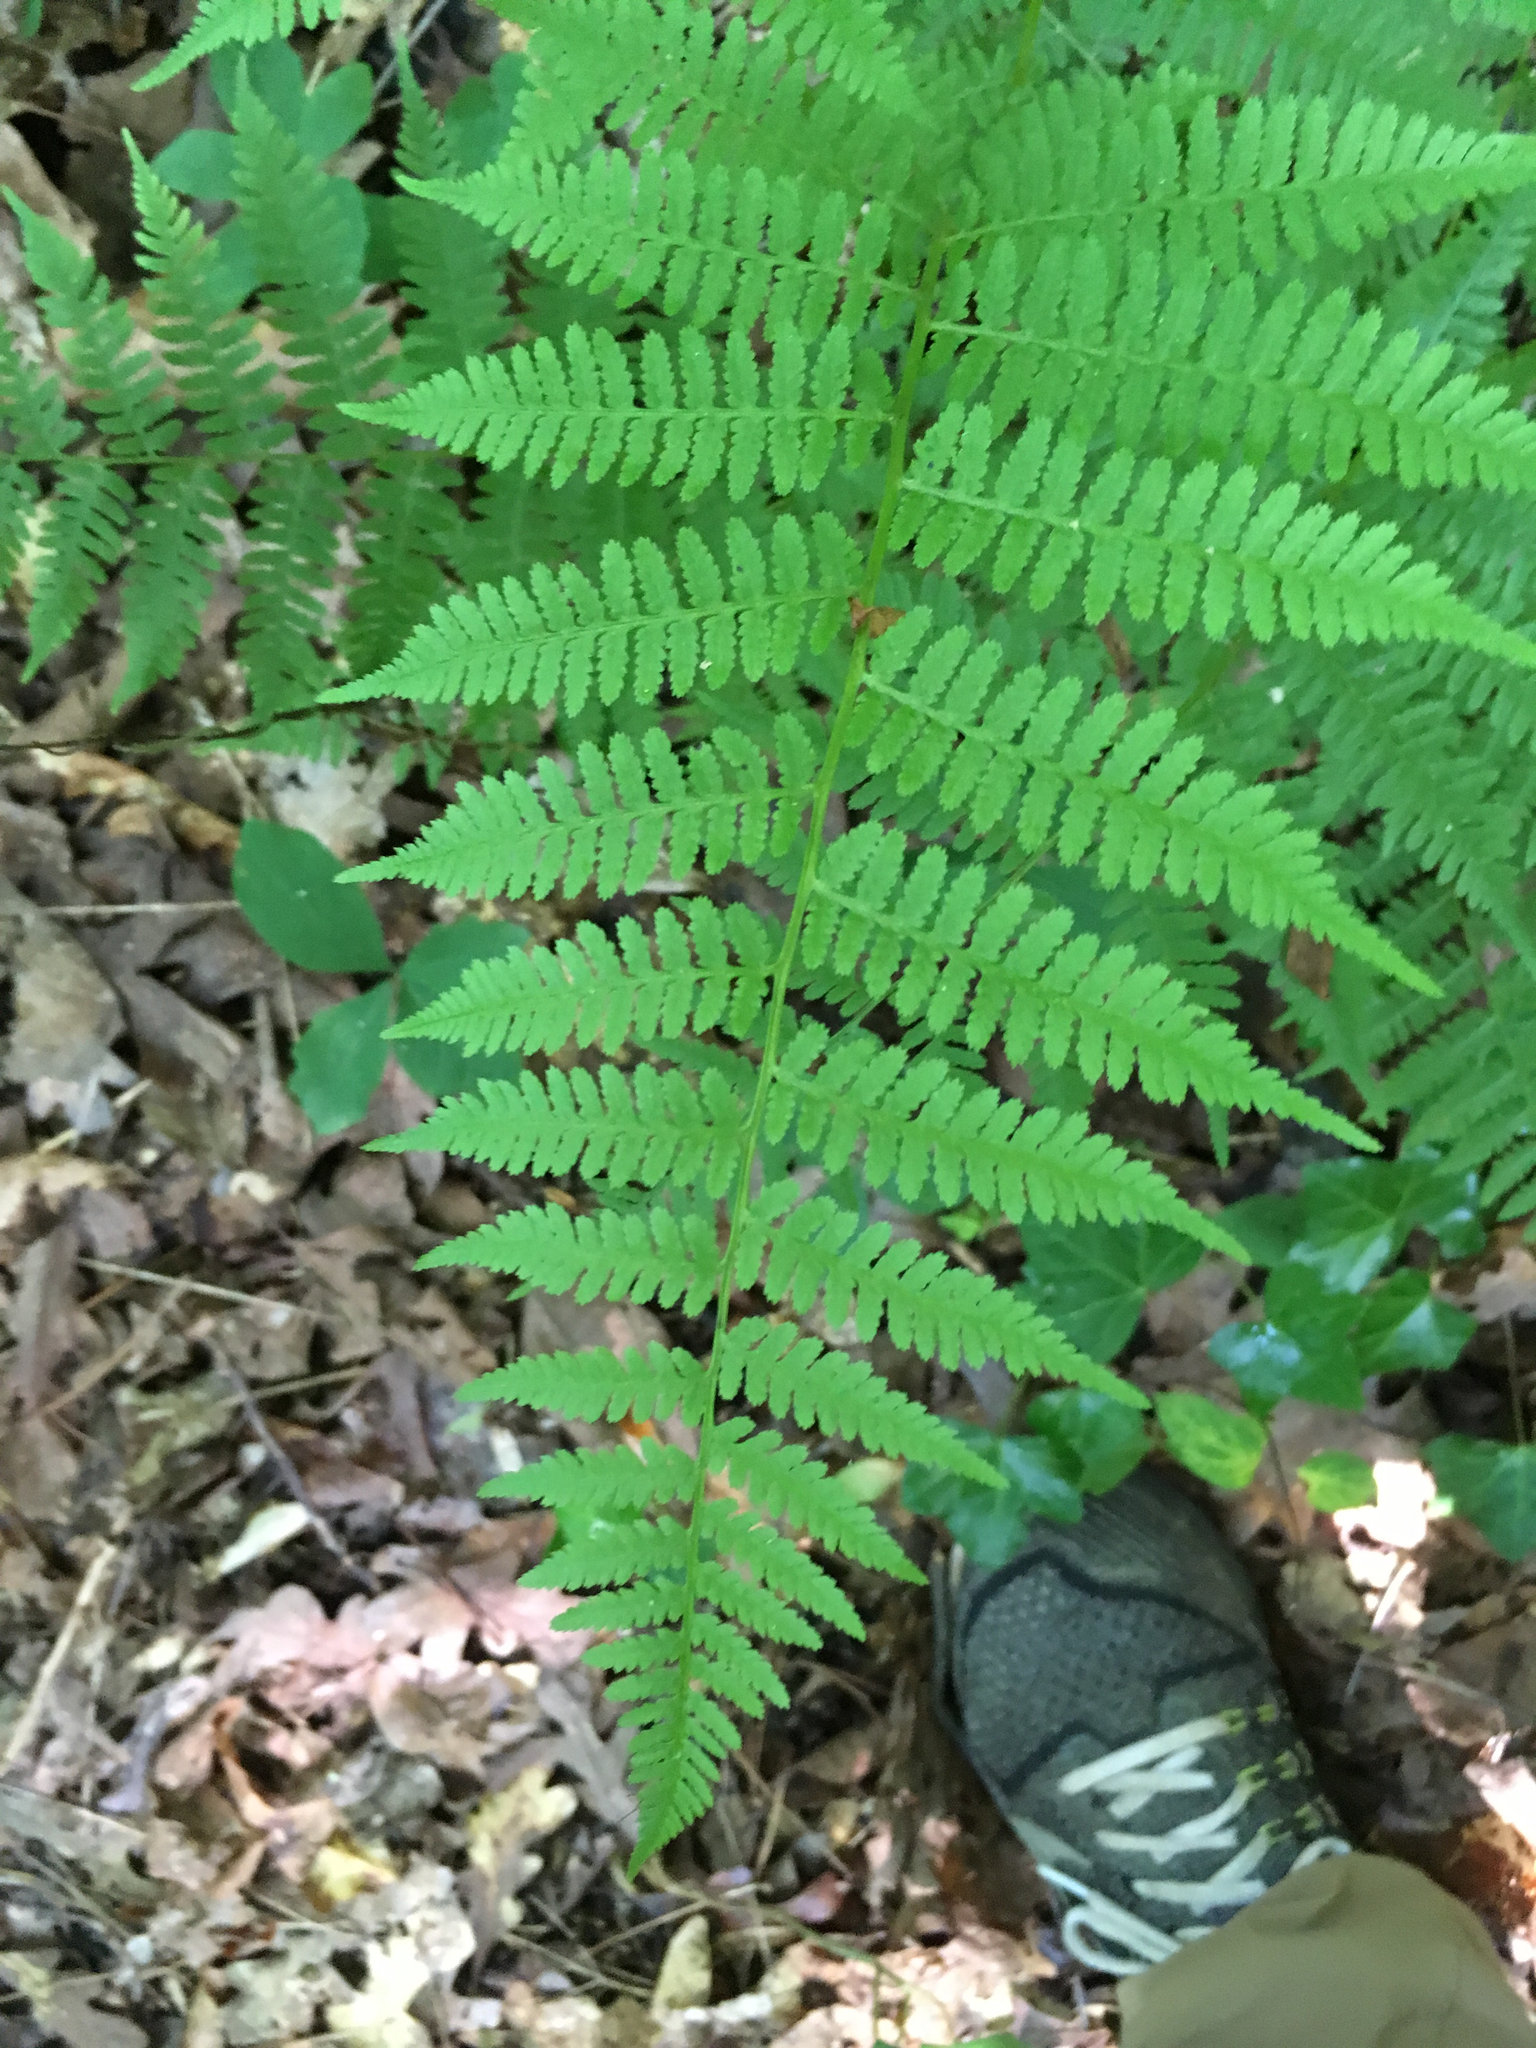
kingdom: Plantae
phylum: Tracheophyta
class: Polypodiopsida
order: Polypodiales
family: Athyriaceae
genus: Athyrium
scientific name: Athyrium asplenioides
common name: Southern lady fern
